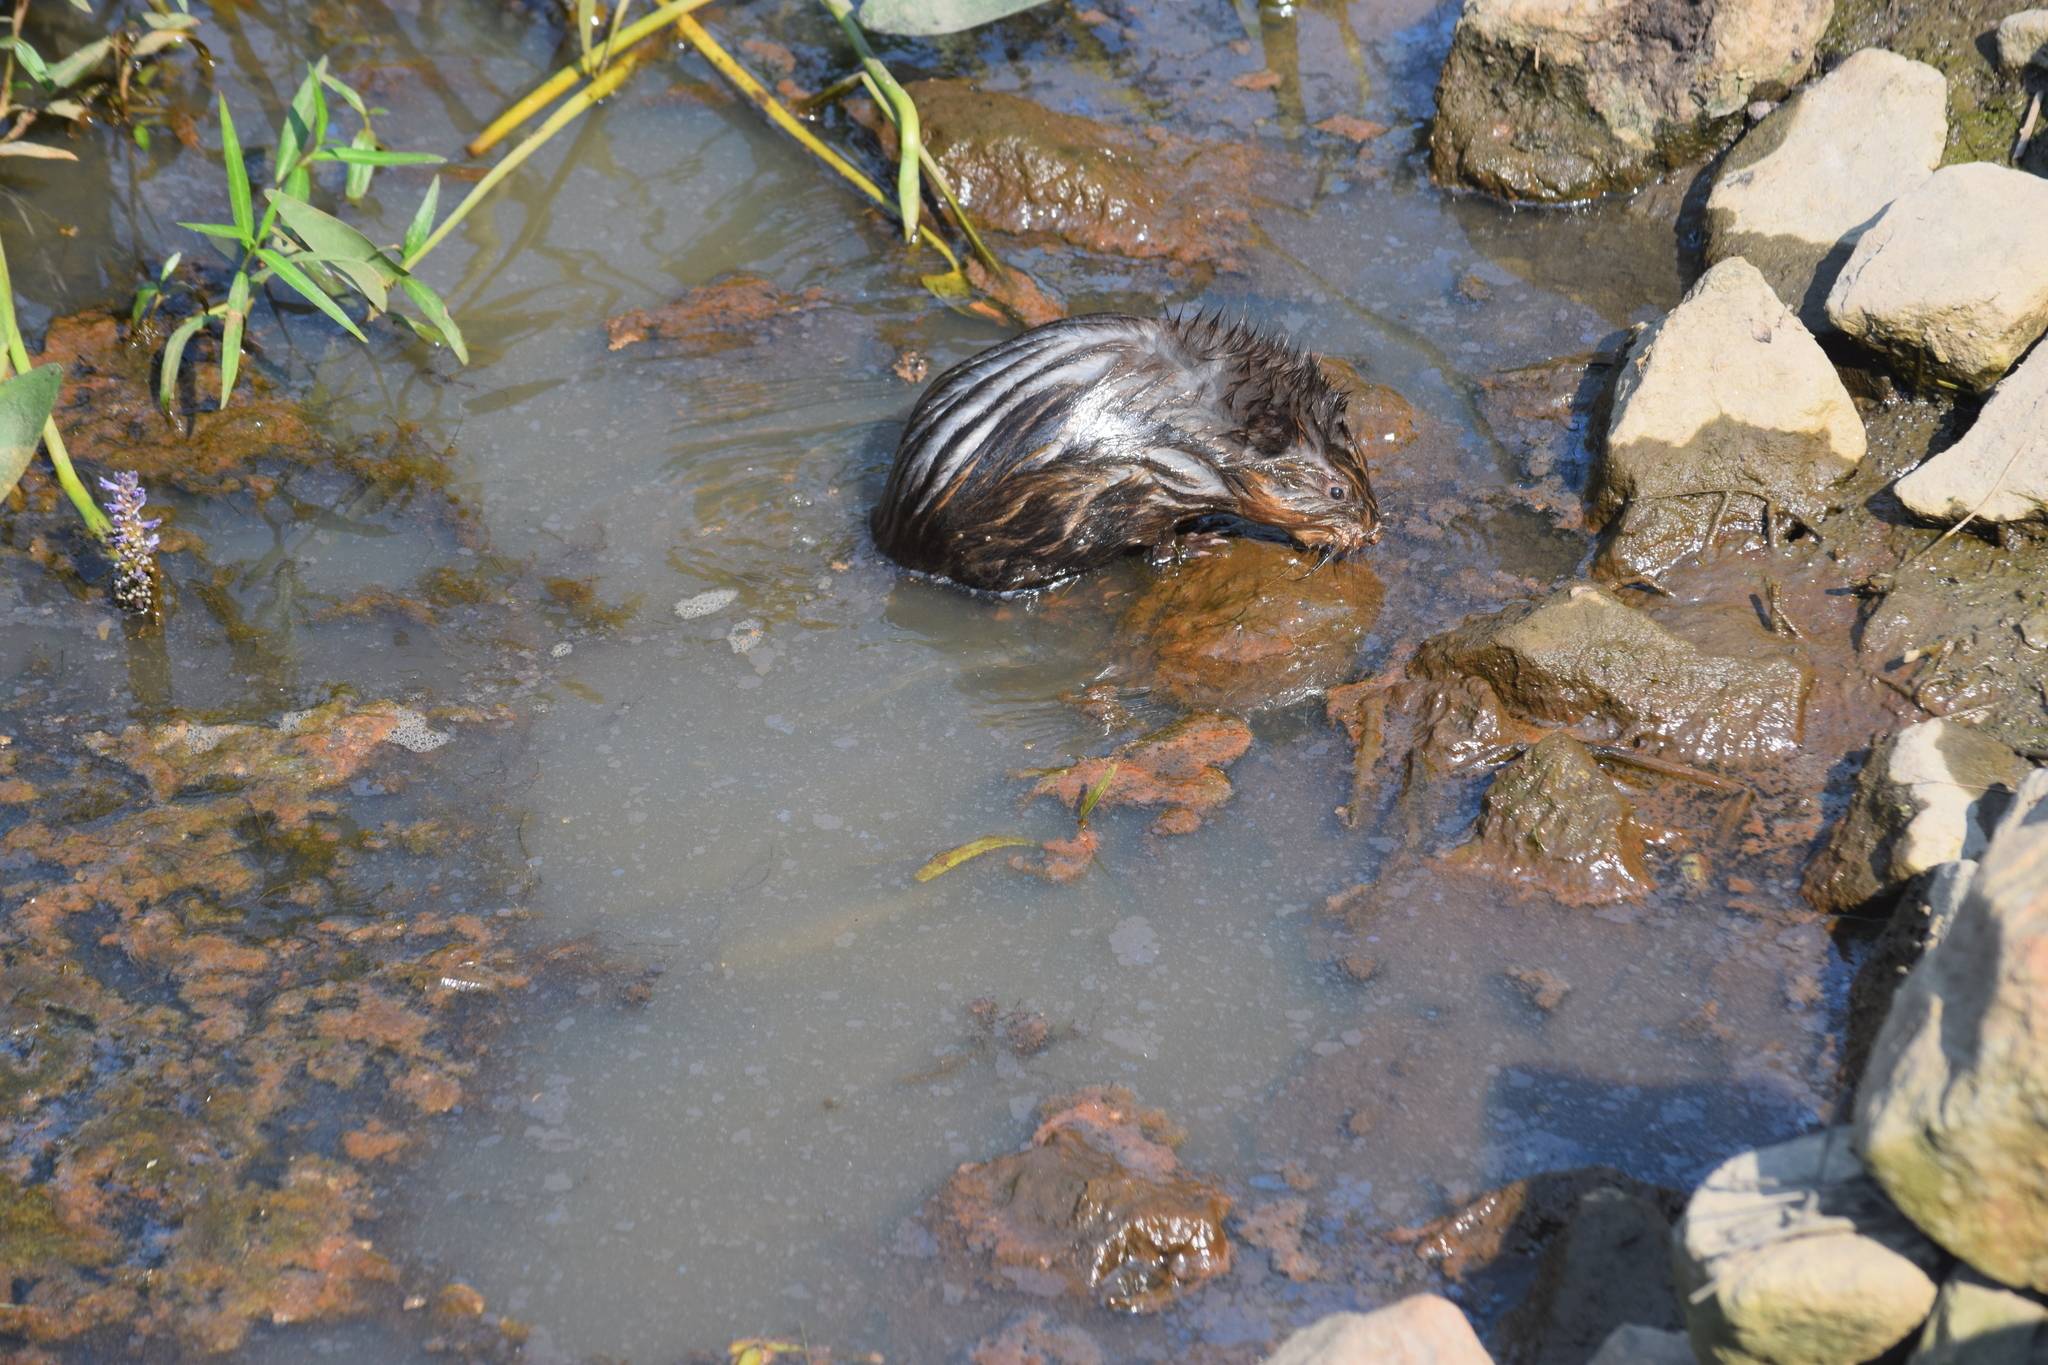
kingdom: Animalia
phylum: Chordata
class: Mammalia
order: Rodentia
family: Cricetidae
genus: Ondatra
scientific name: Ondatra zibethicus
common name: Muskrat
